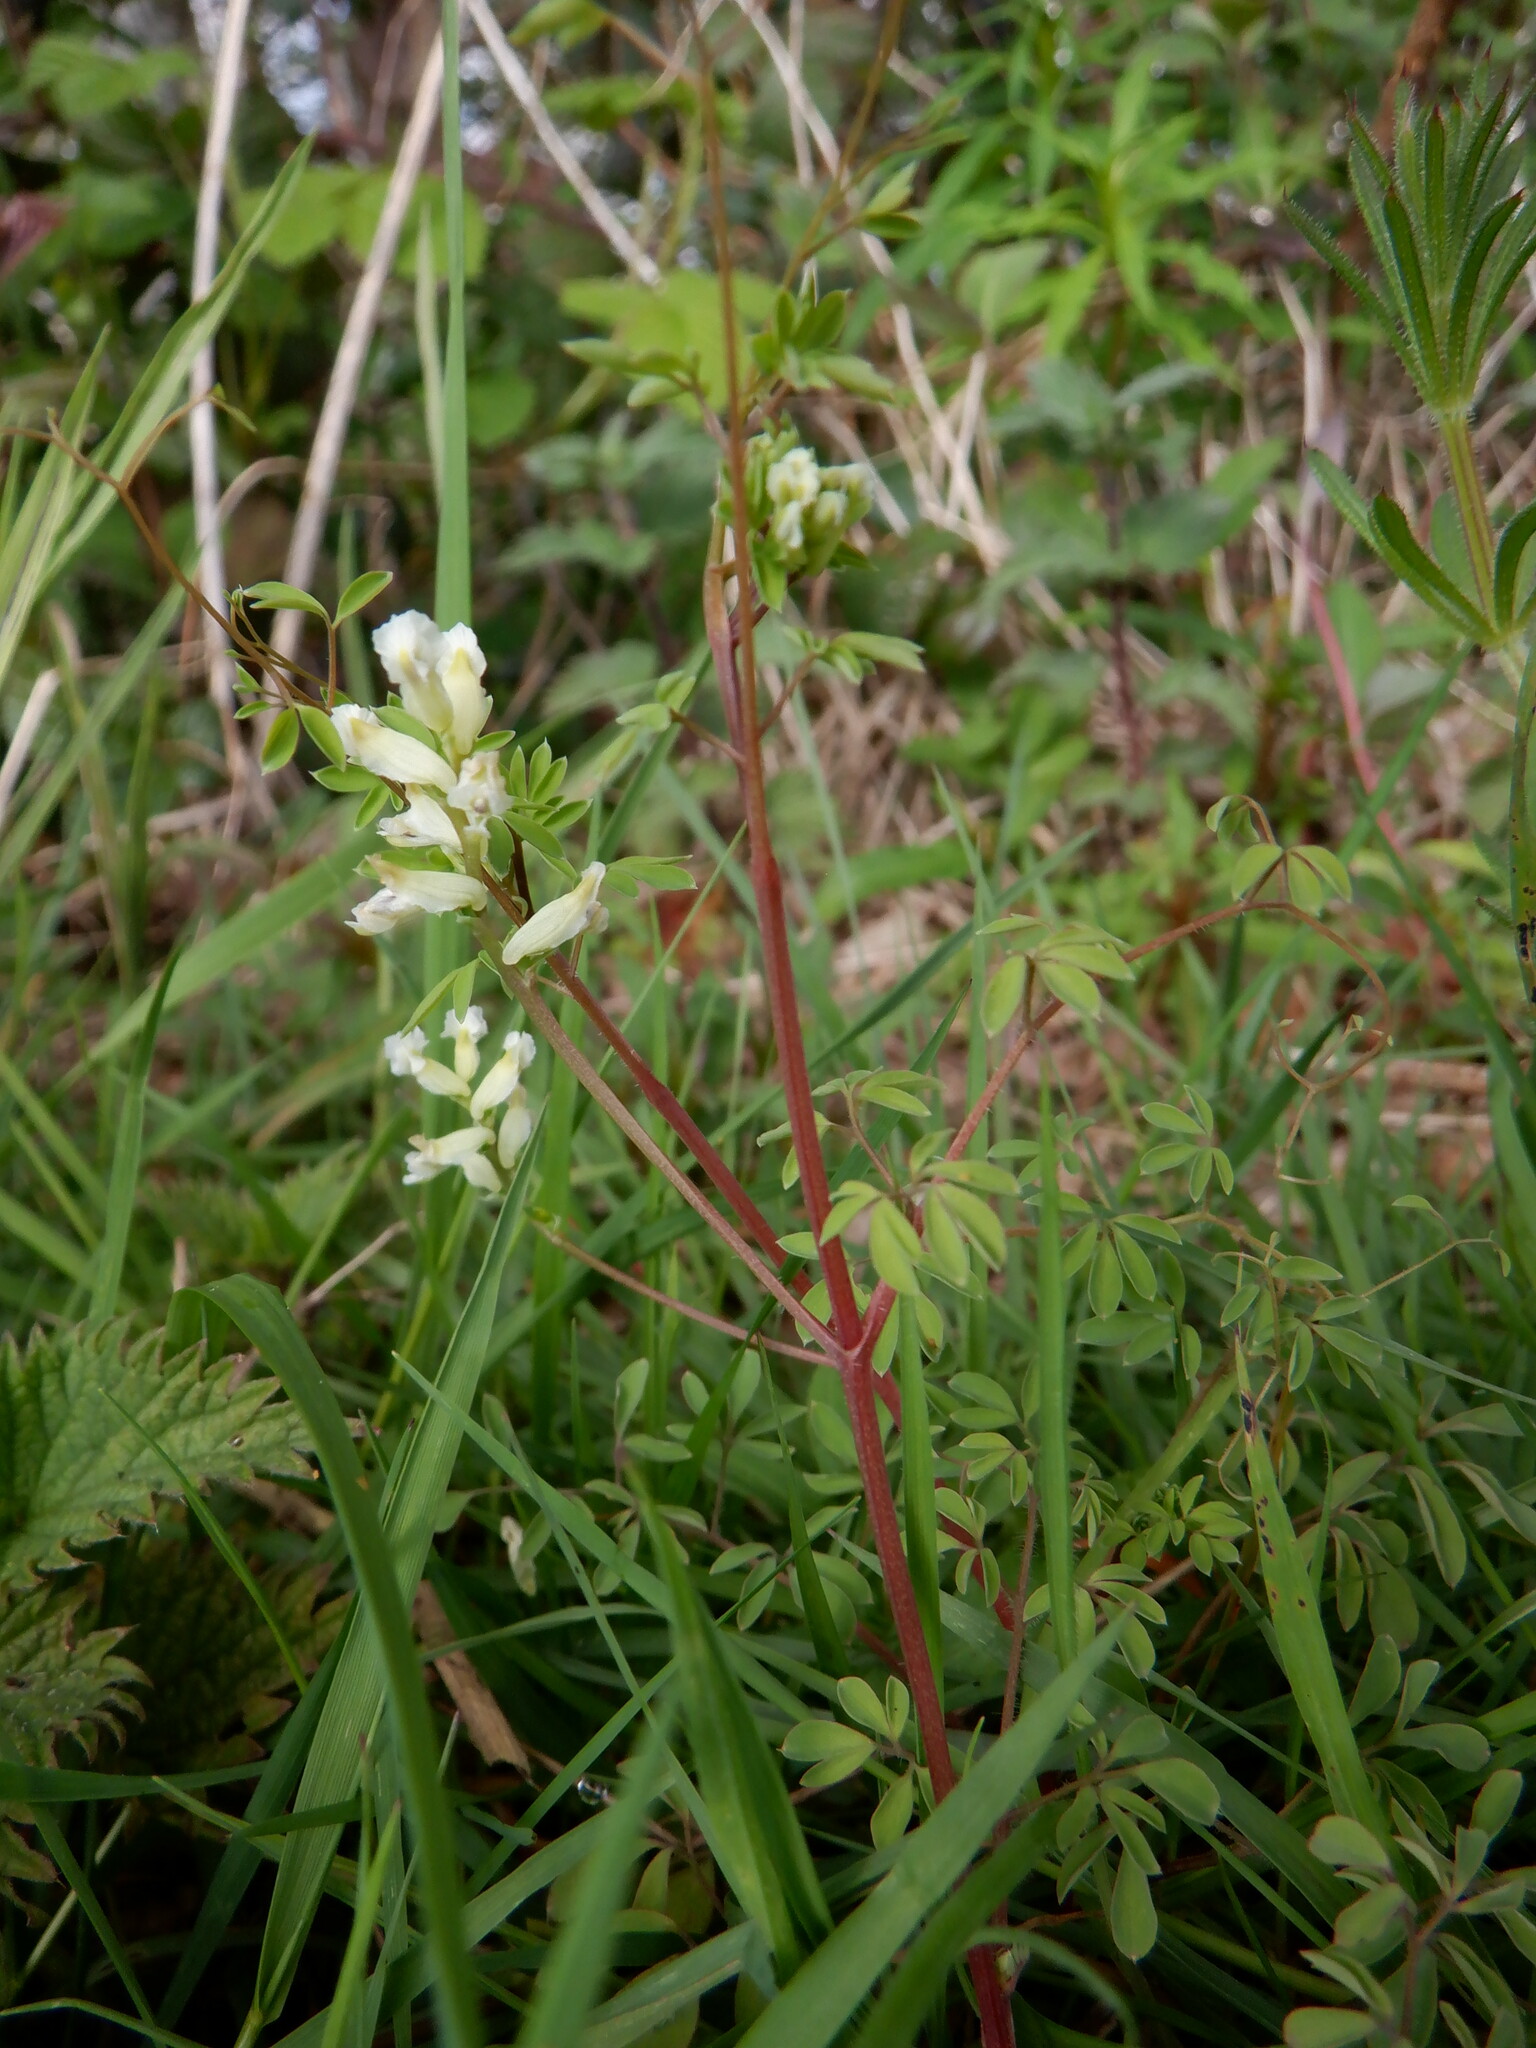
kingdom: Plantae
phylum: Tracheophyta
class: Magnoliopsida
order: Ranunculales
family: Papaveraceae
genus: Ceratocapnos
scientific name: Ceratocapnos claviculata
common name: Climbing corydalis
